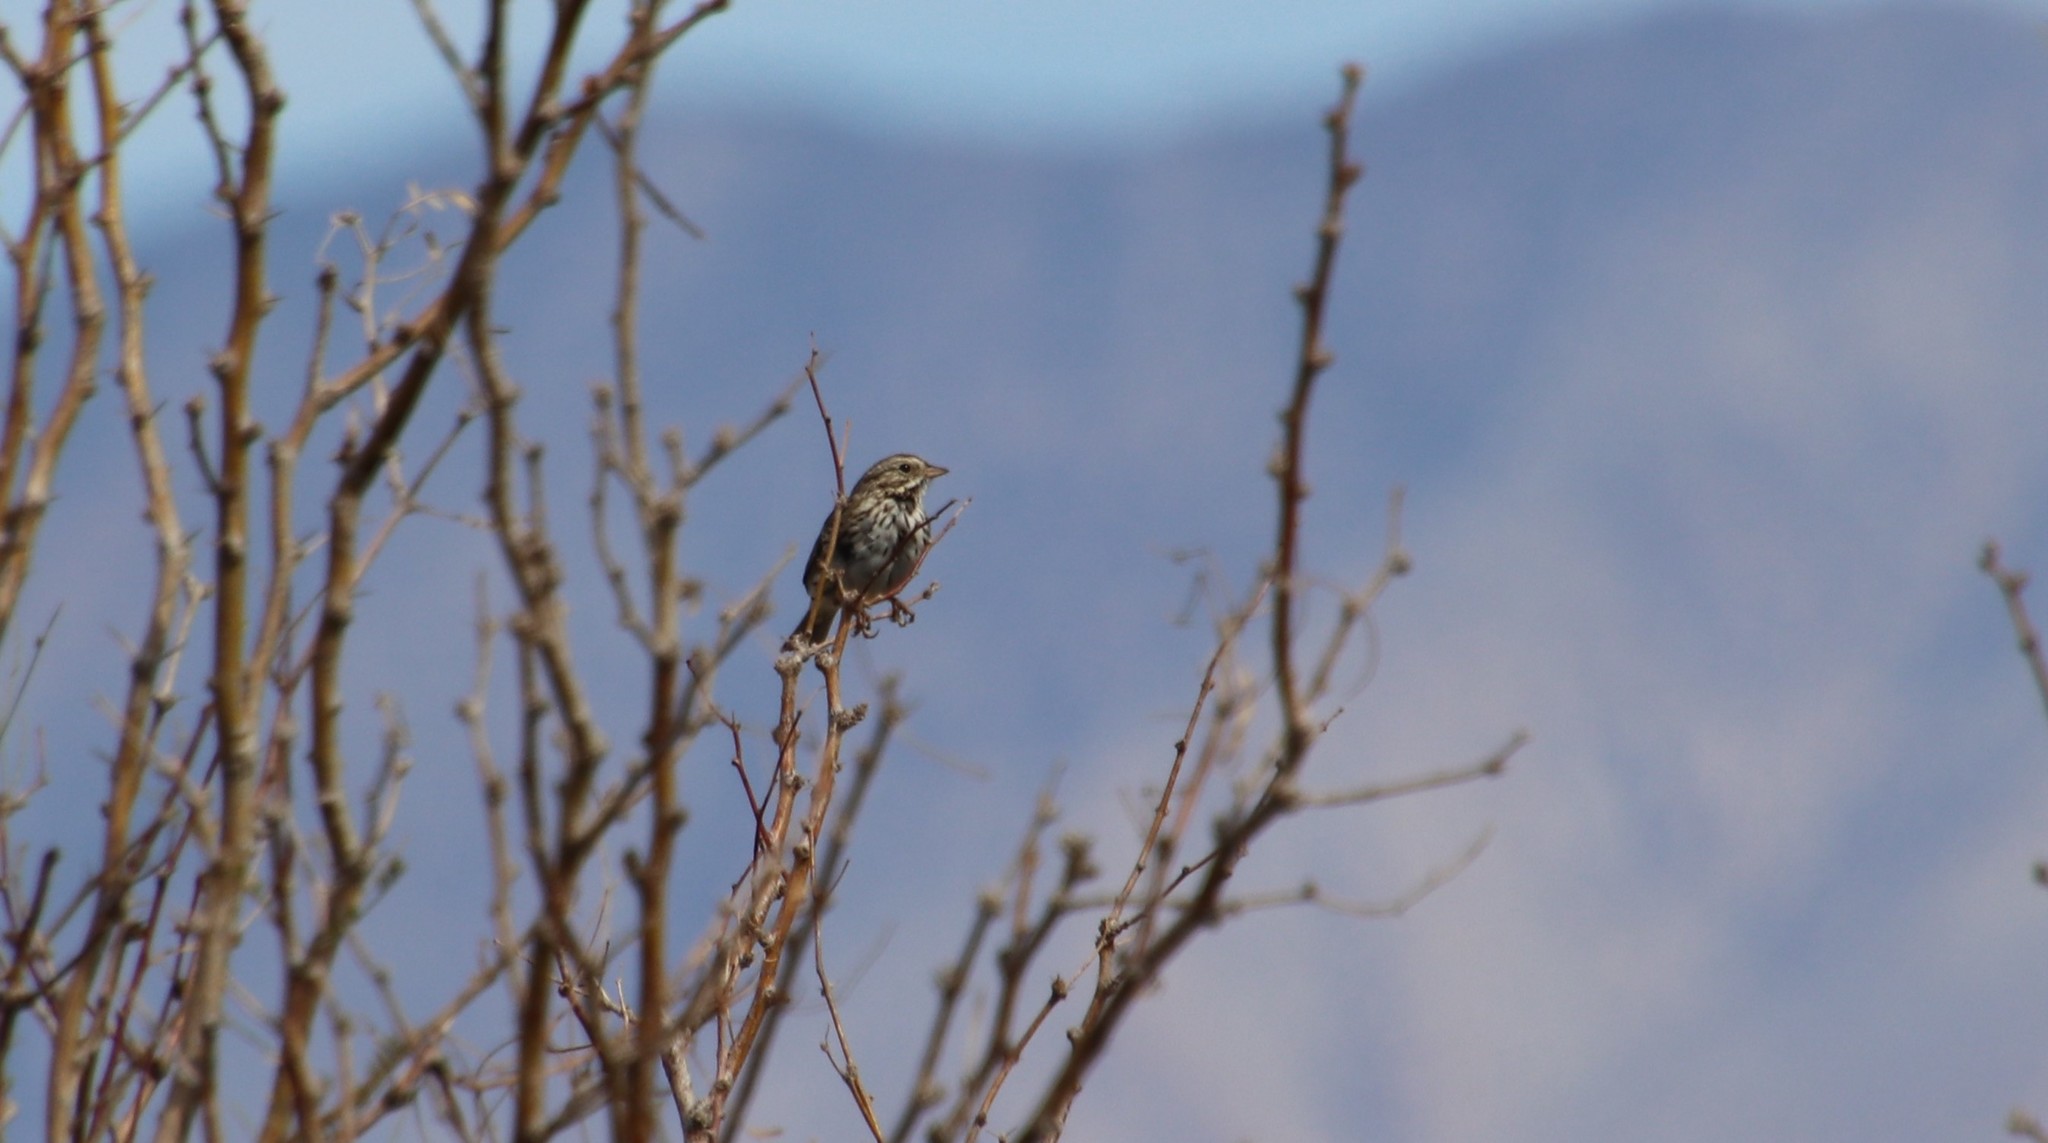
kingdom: Animalia
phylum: Chordata
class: Aves
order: Passeriformes
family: Passerellidae
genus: Passerculus
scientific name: Passerculus sandwichensis
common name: Savannah sparrow
